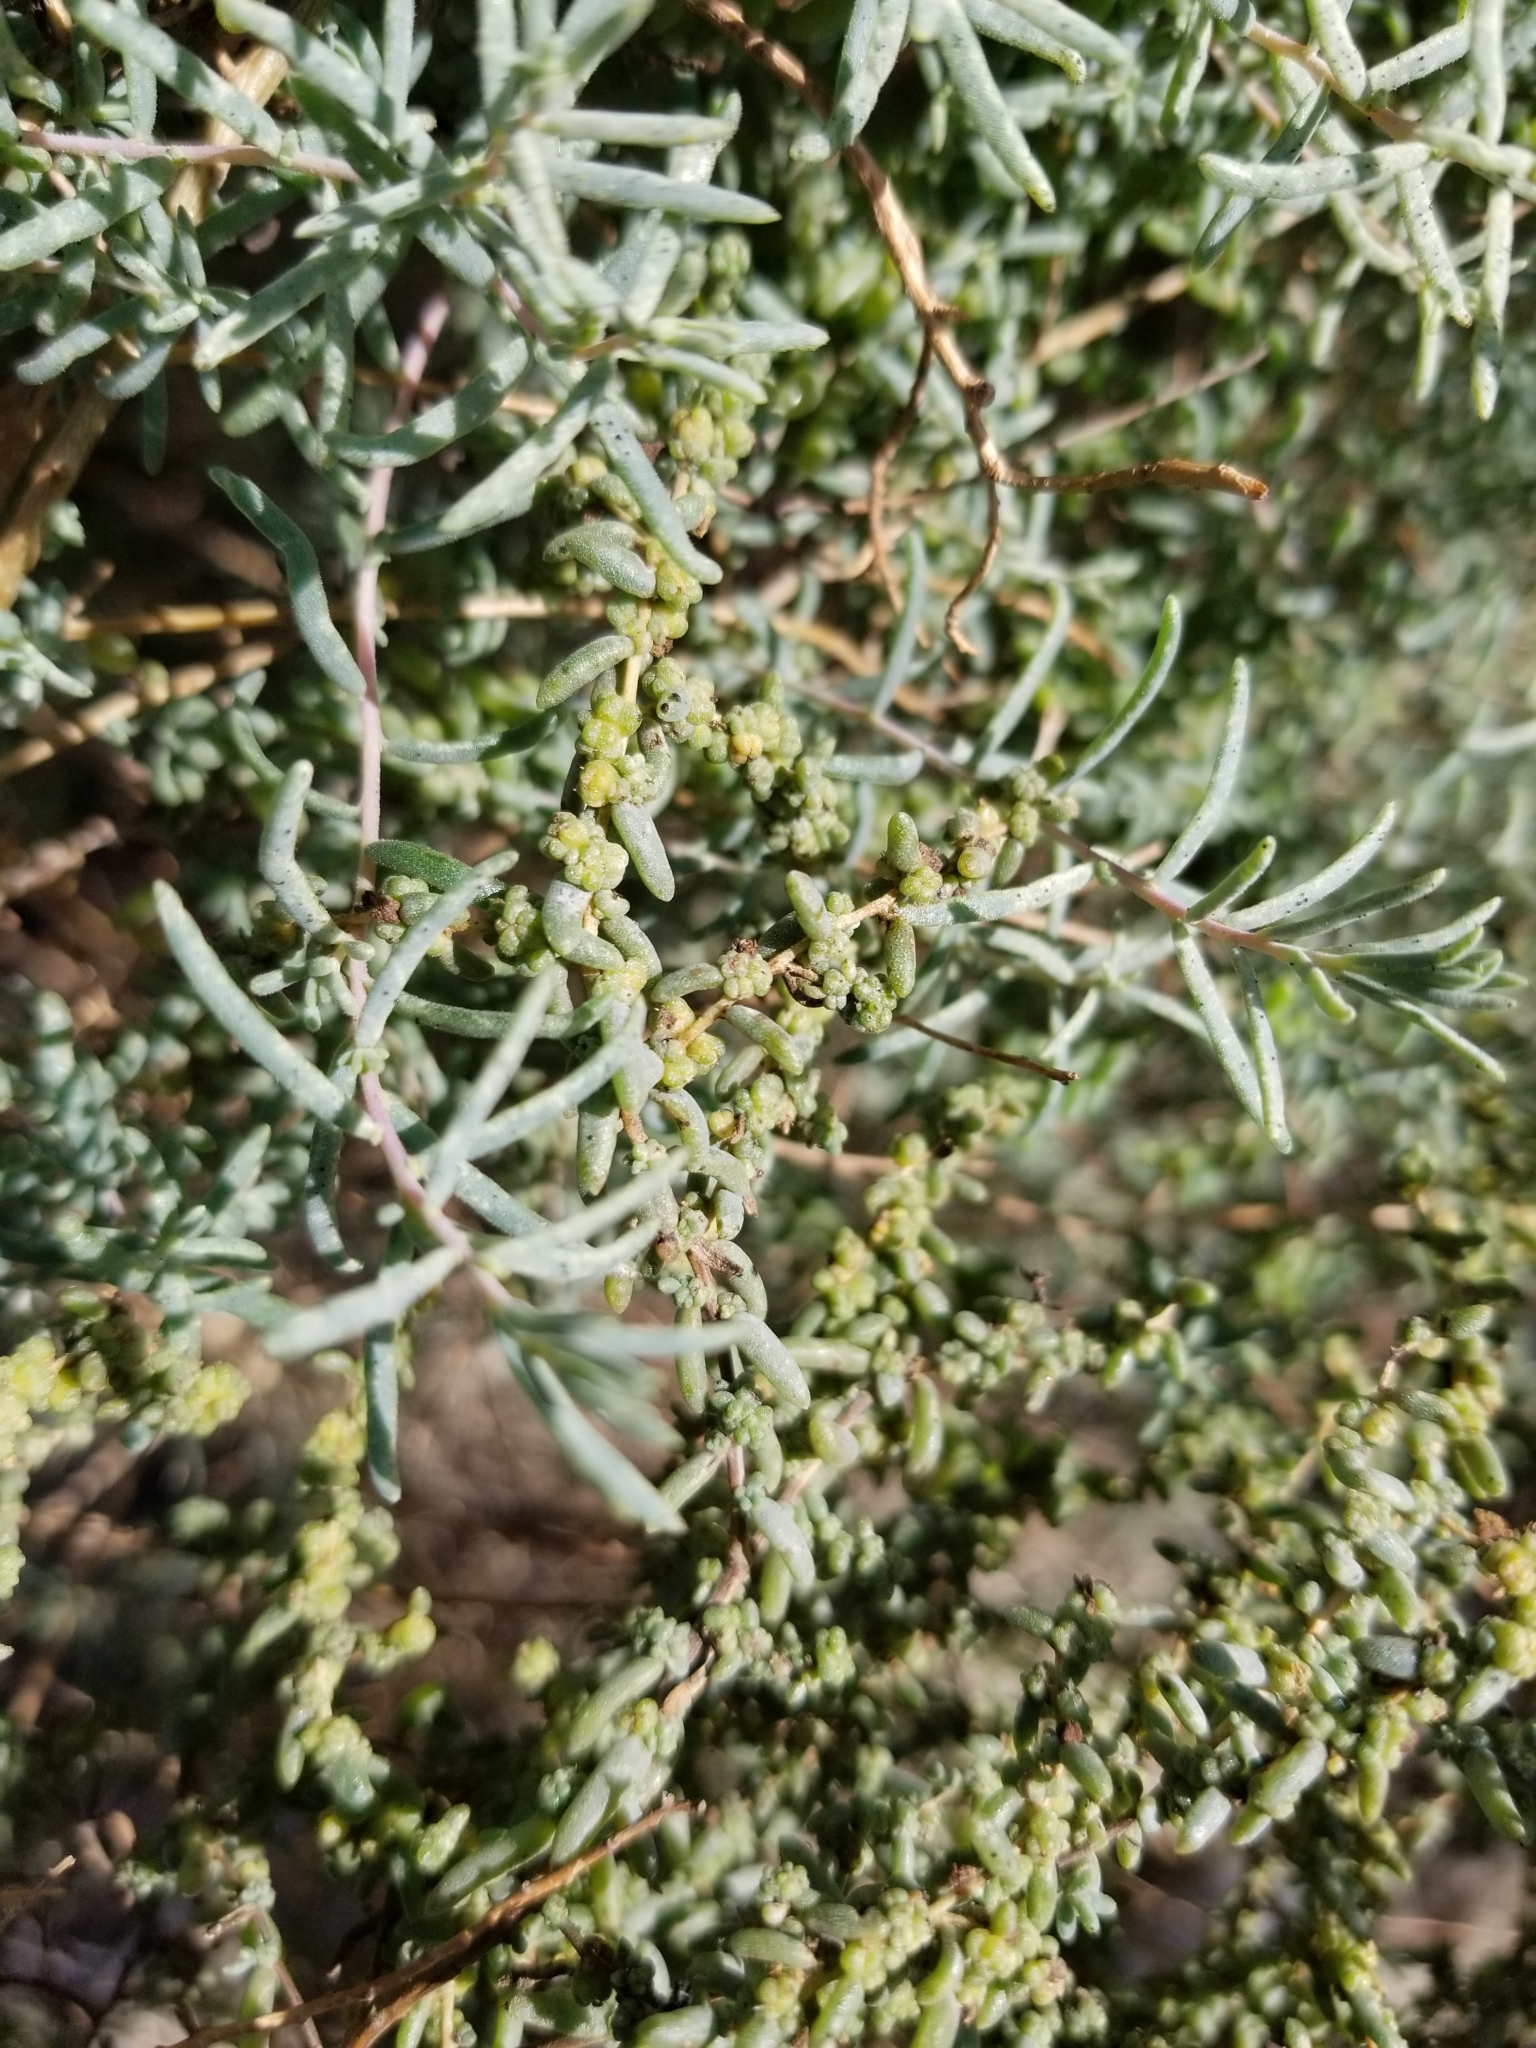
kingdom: Plantae
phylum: Tracheophyta
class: Magnoliopsida
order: Caryophyllales
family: Amaranthaceae
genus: Suaeda
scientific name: Suaeda nigra
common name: Bush seepweed
